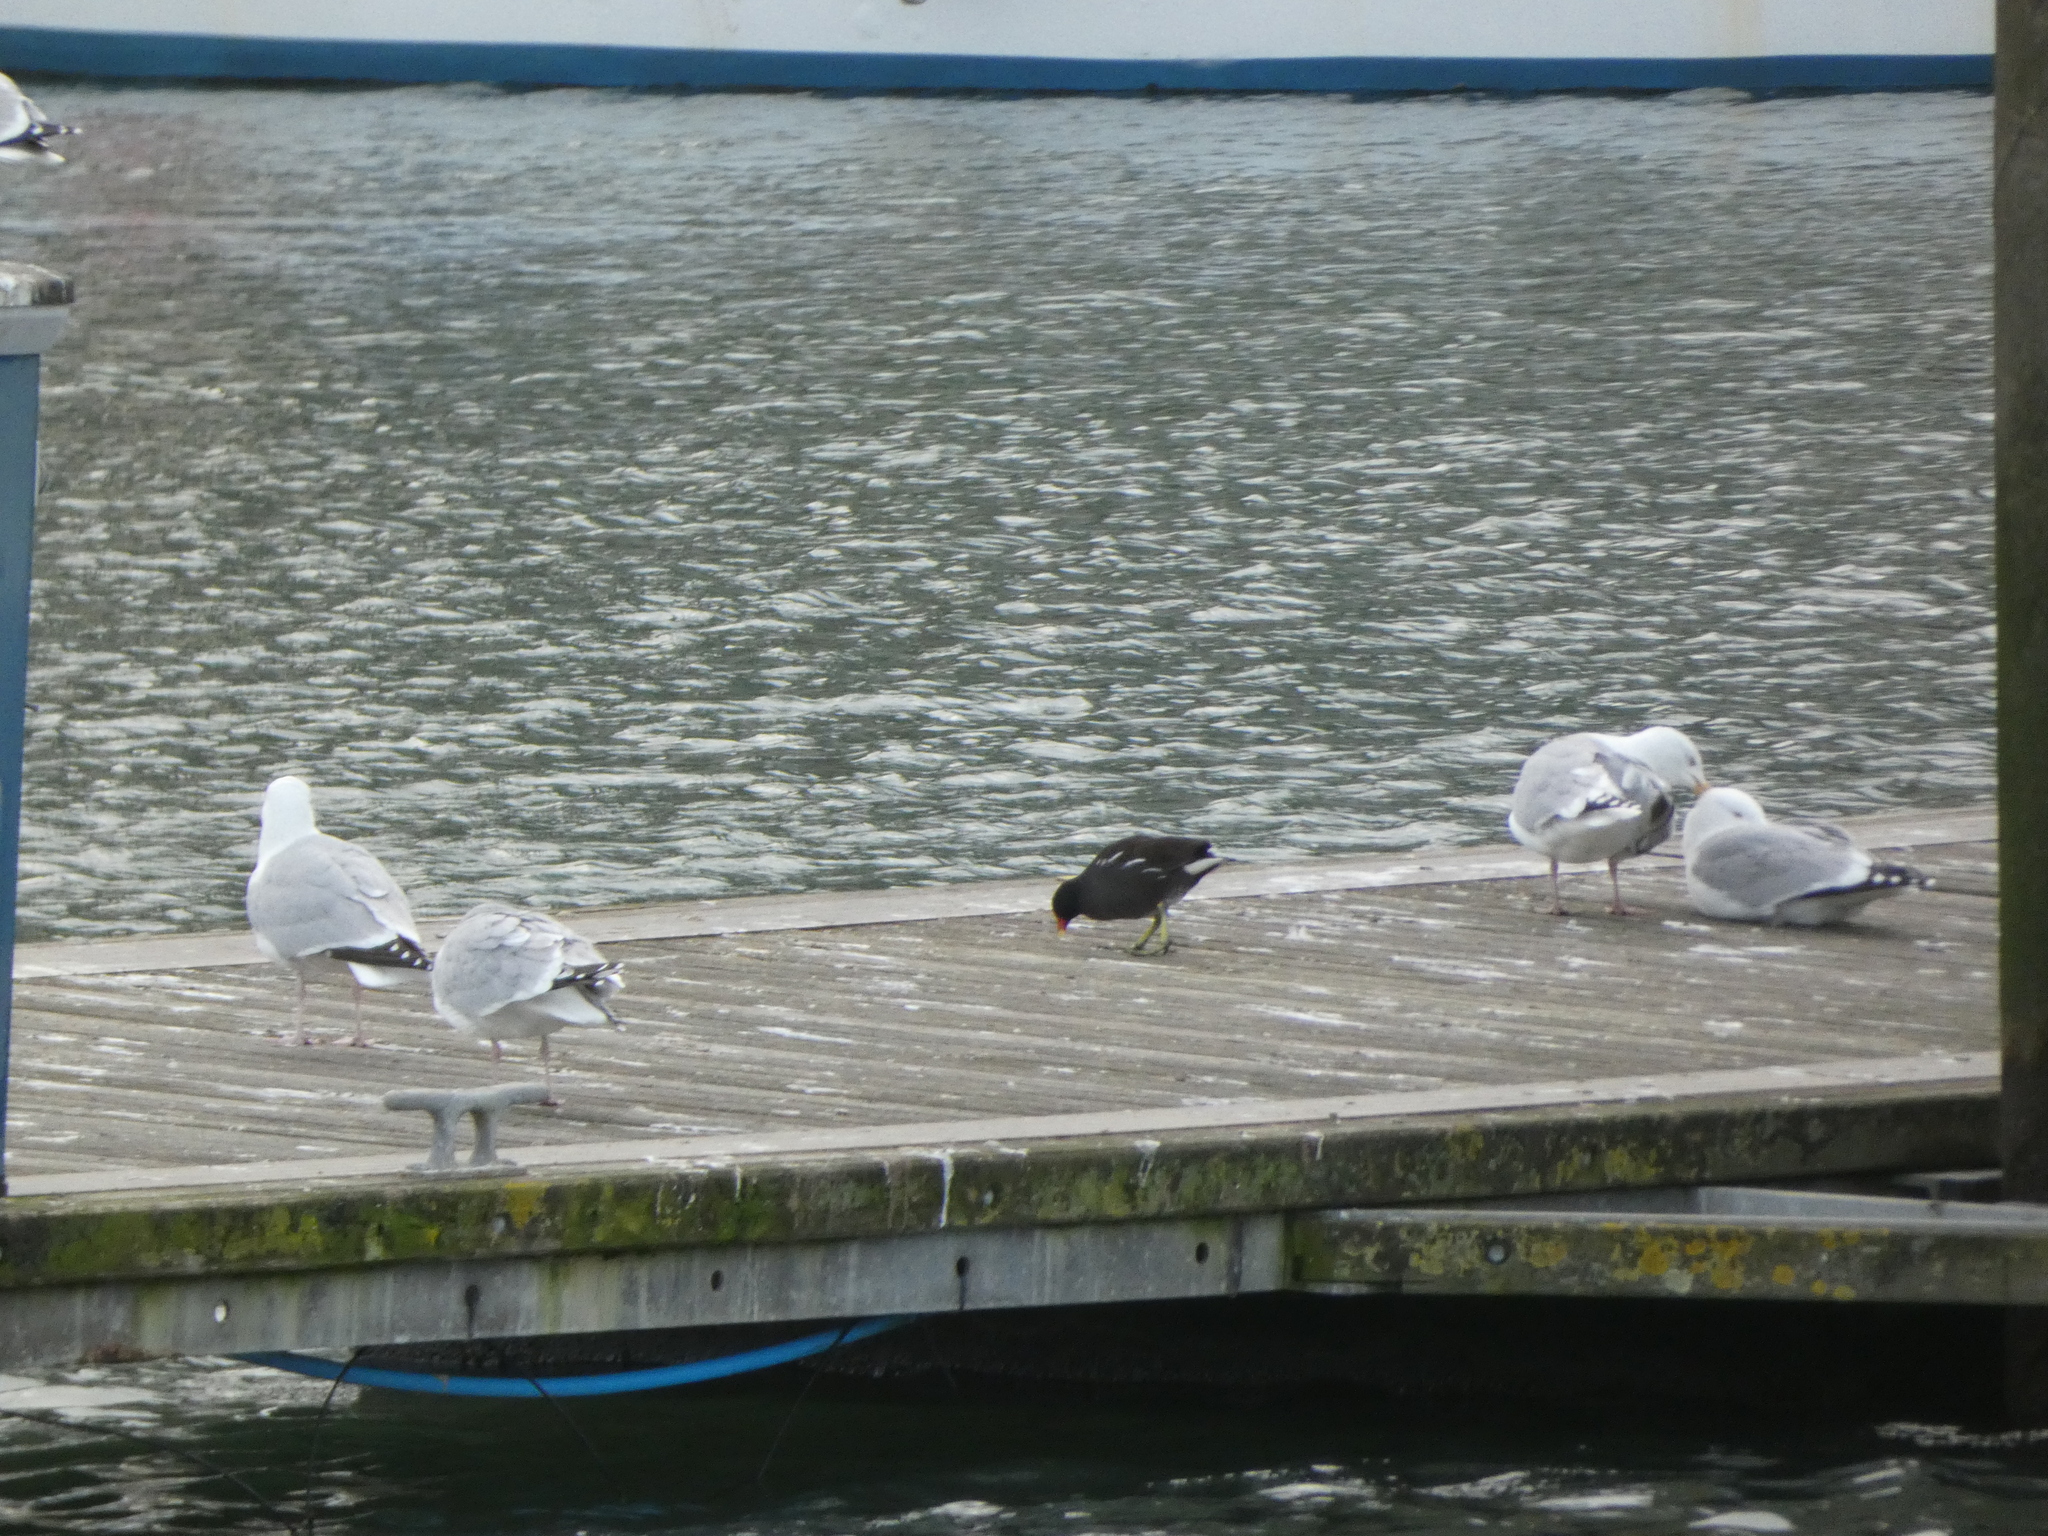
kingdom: Animalia
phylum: Chordata
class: Aves
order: Gruiformes
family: Rallidae
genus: Gallinula
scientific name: Gallinula chloropus
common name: Common moorhen
